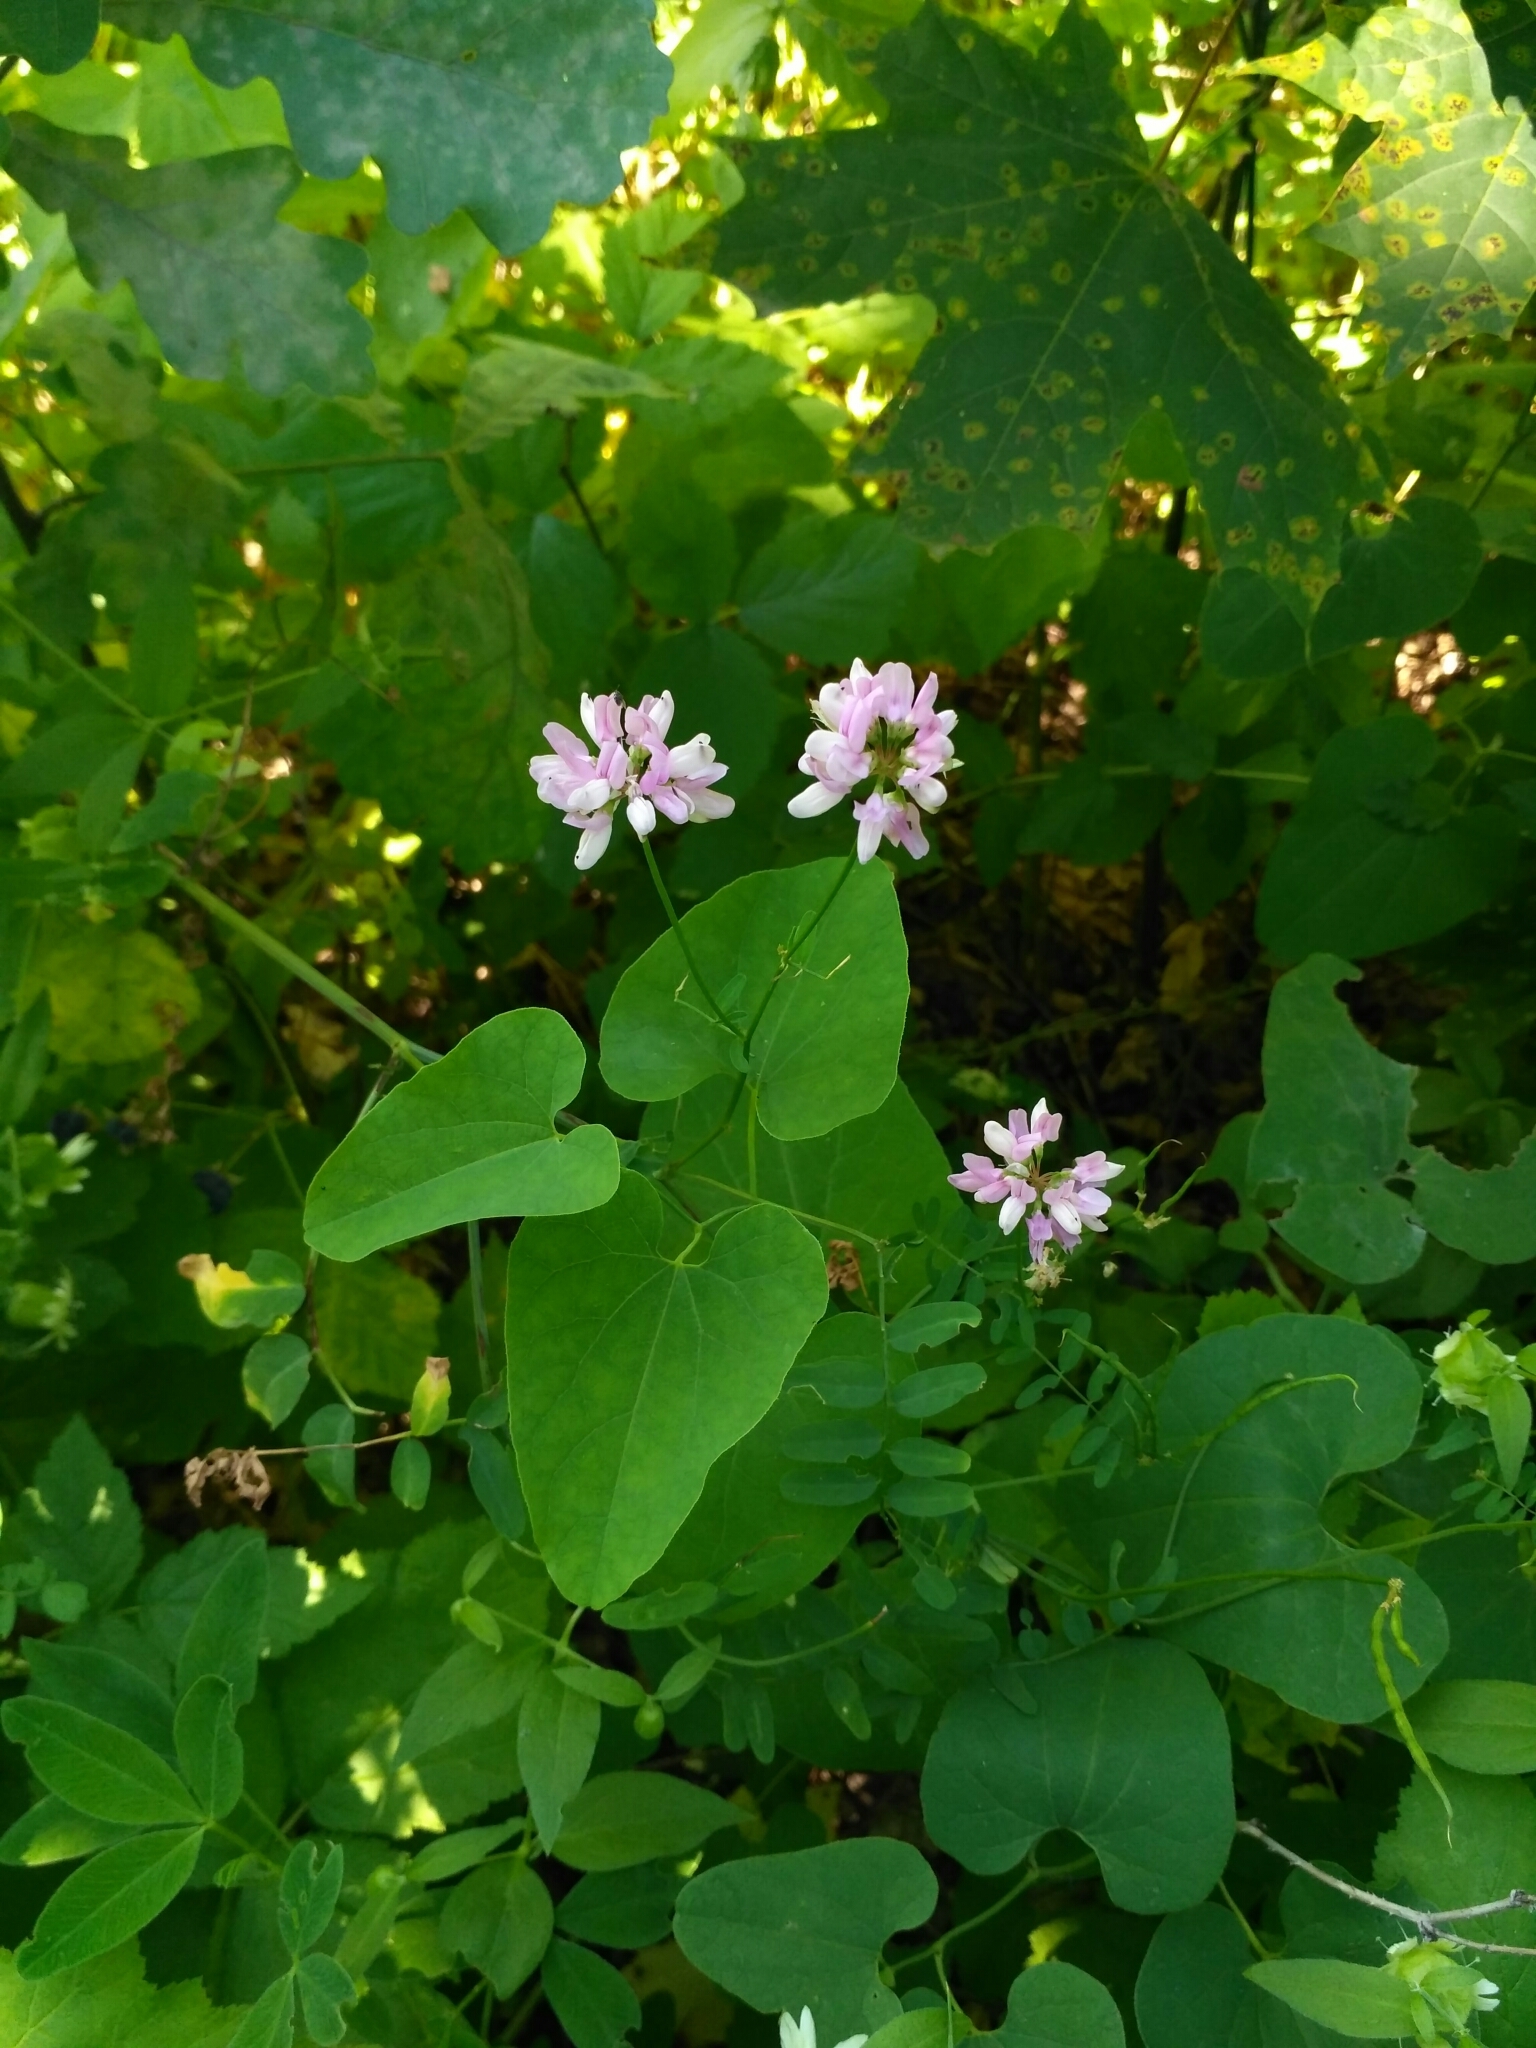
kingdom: Plantae
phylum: Tracheophyta
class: Magnoliopsida
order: Fabales
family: Fabaceae
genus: Coronilla
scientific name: Coronilla varia
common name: Crownvetch
